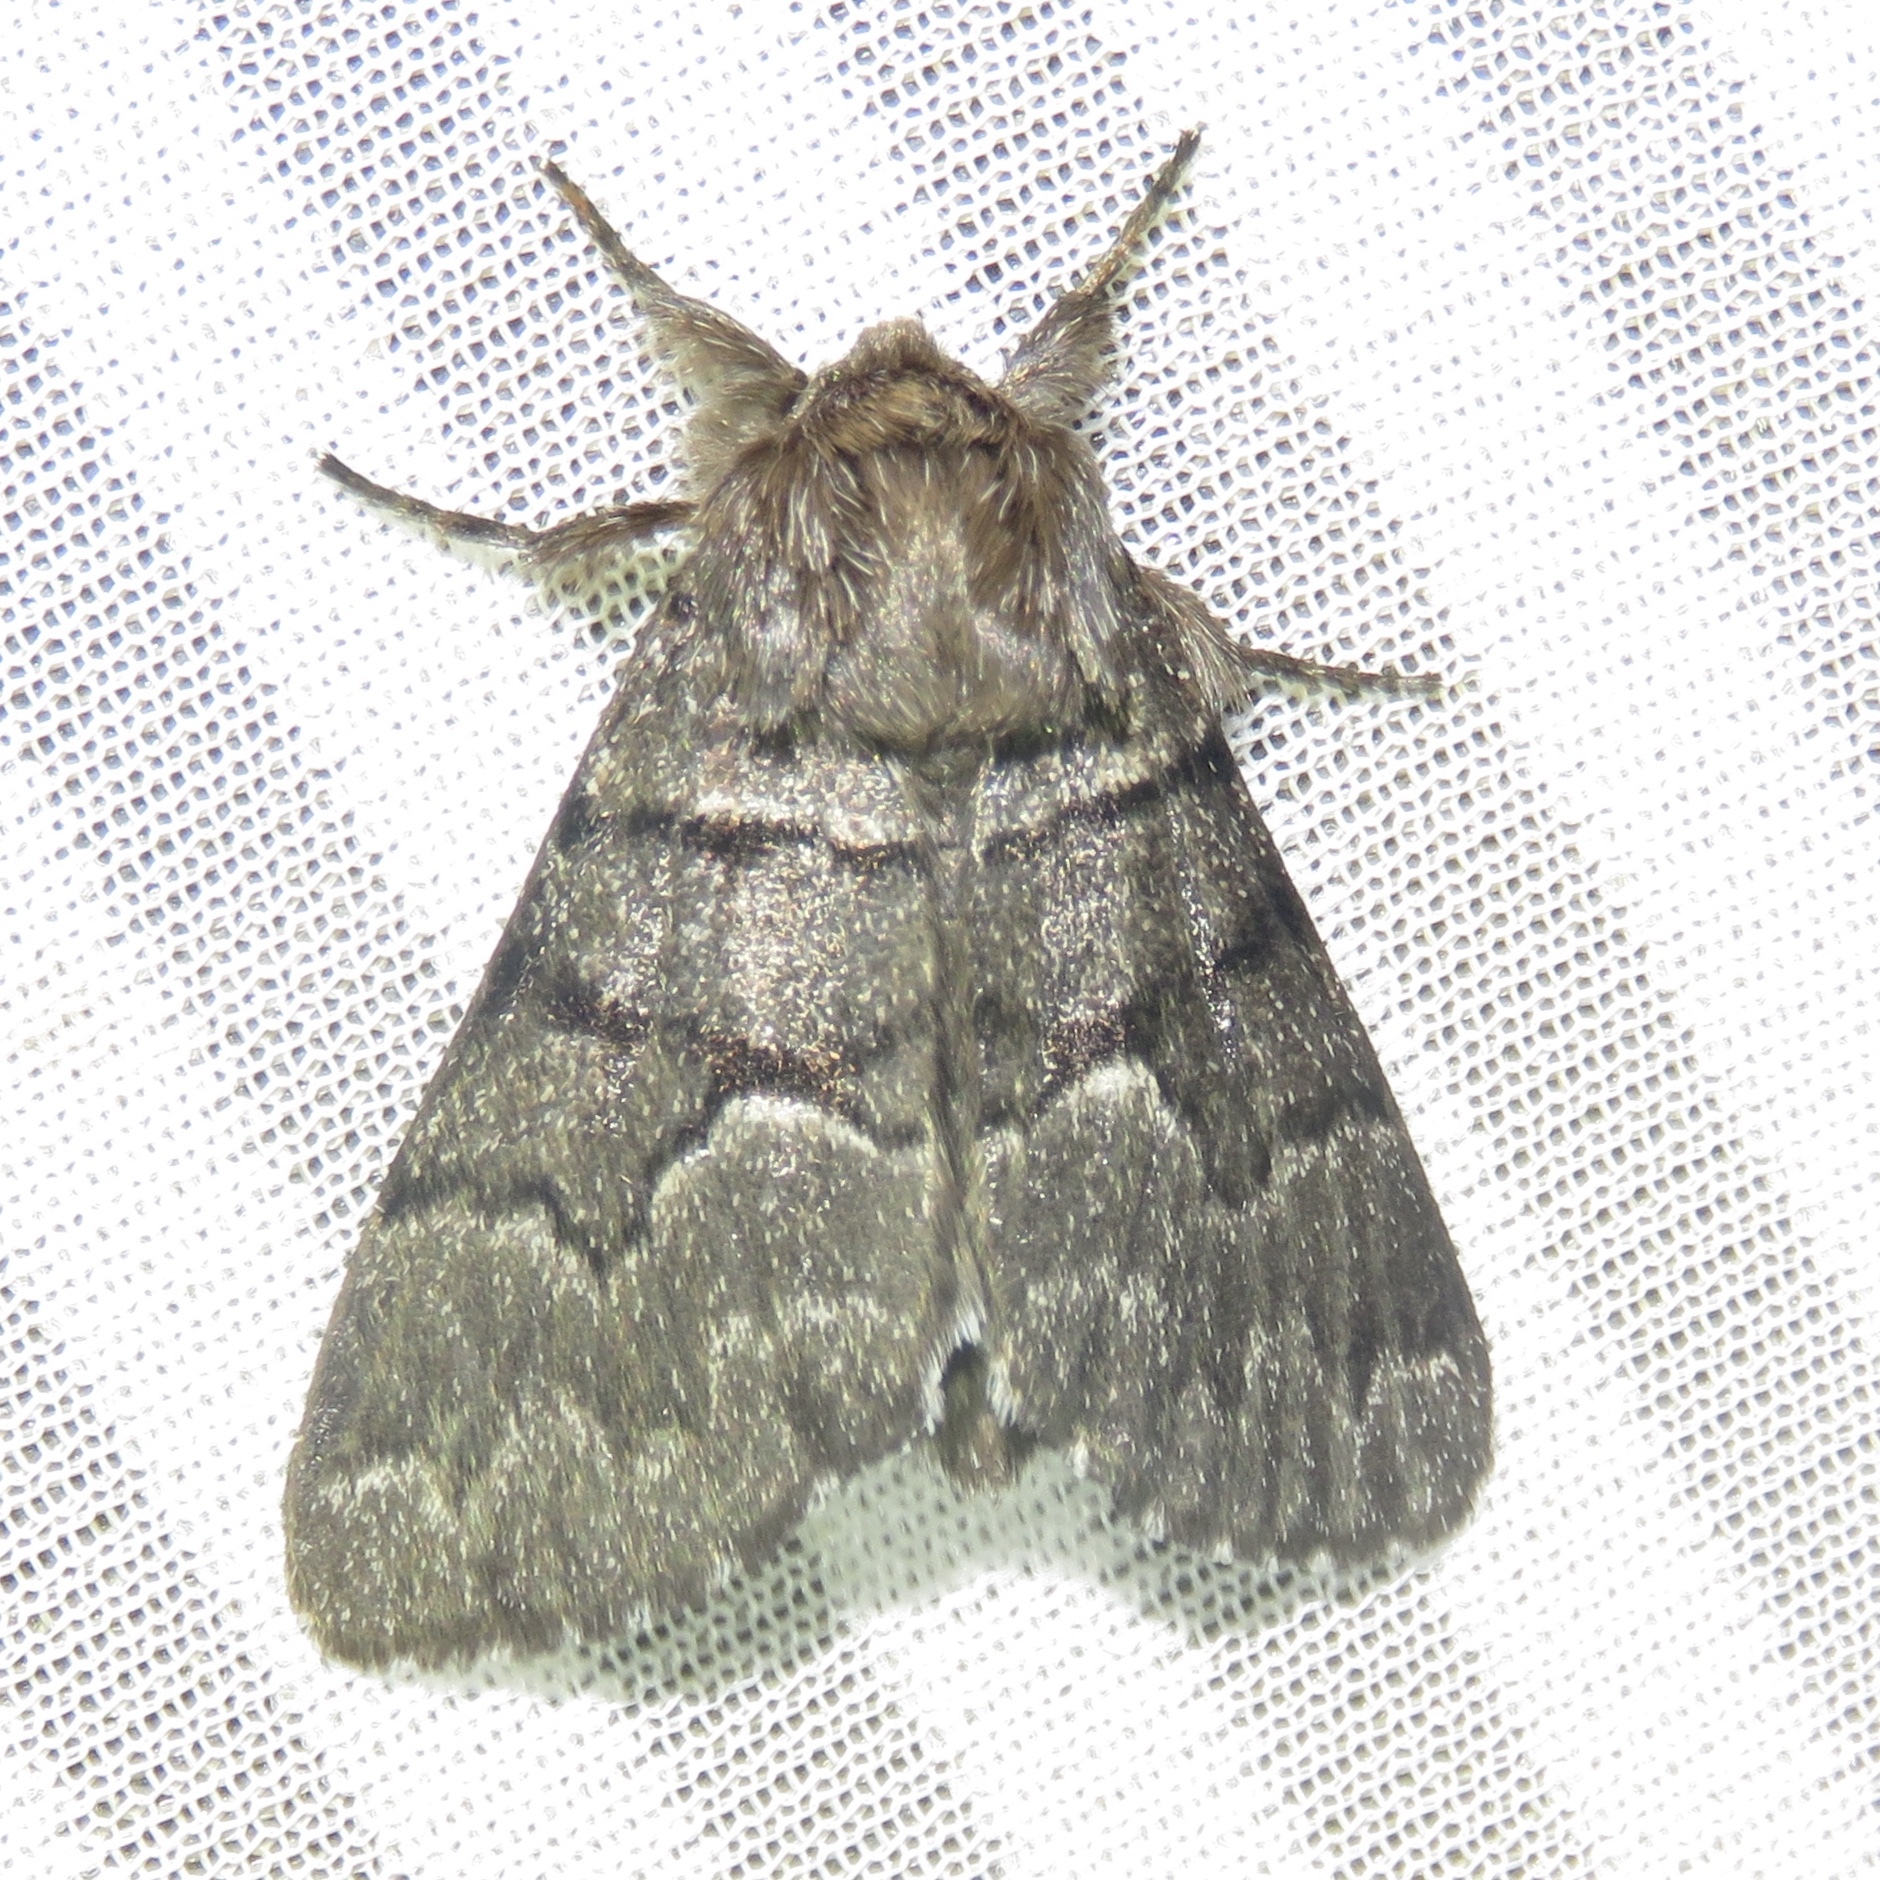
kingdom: Animalia
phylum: Arthropoda
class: Insecta
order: Lepidoptera
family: Noctuidae
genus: Panthea
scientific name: Panthea furcilla
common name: Eastern panthea moth
